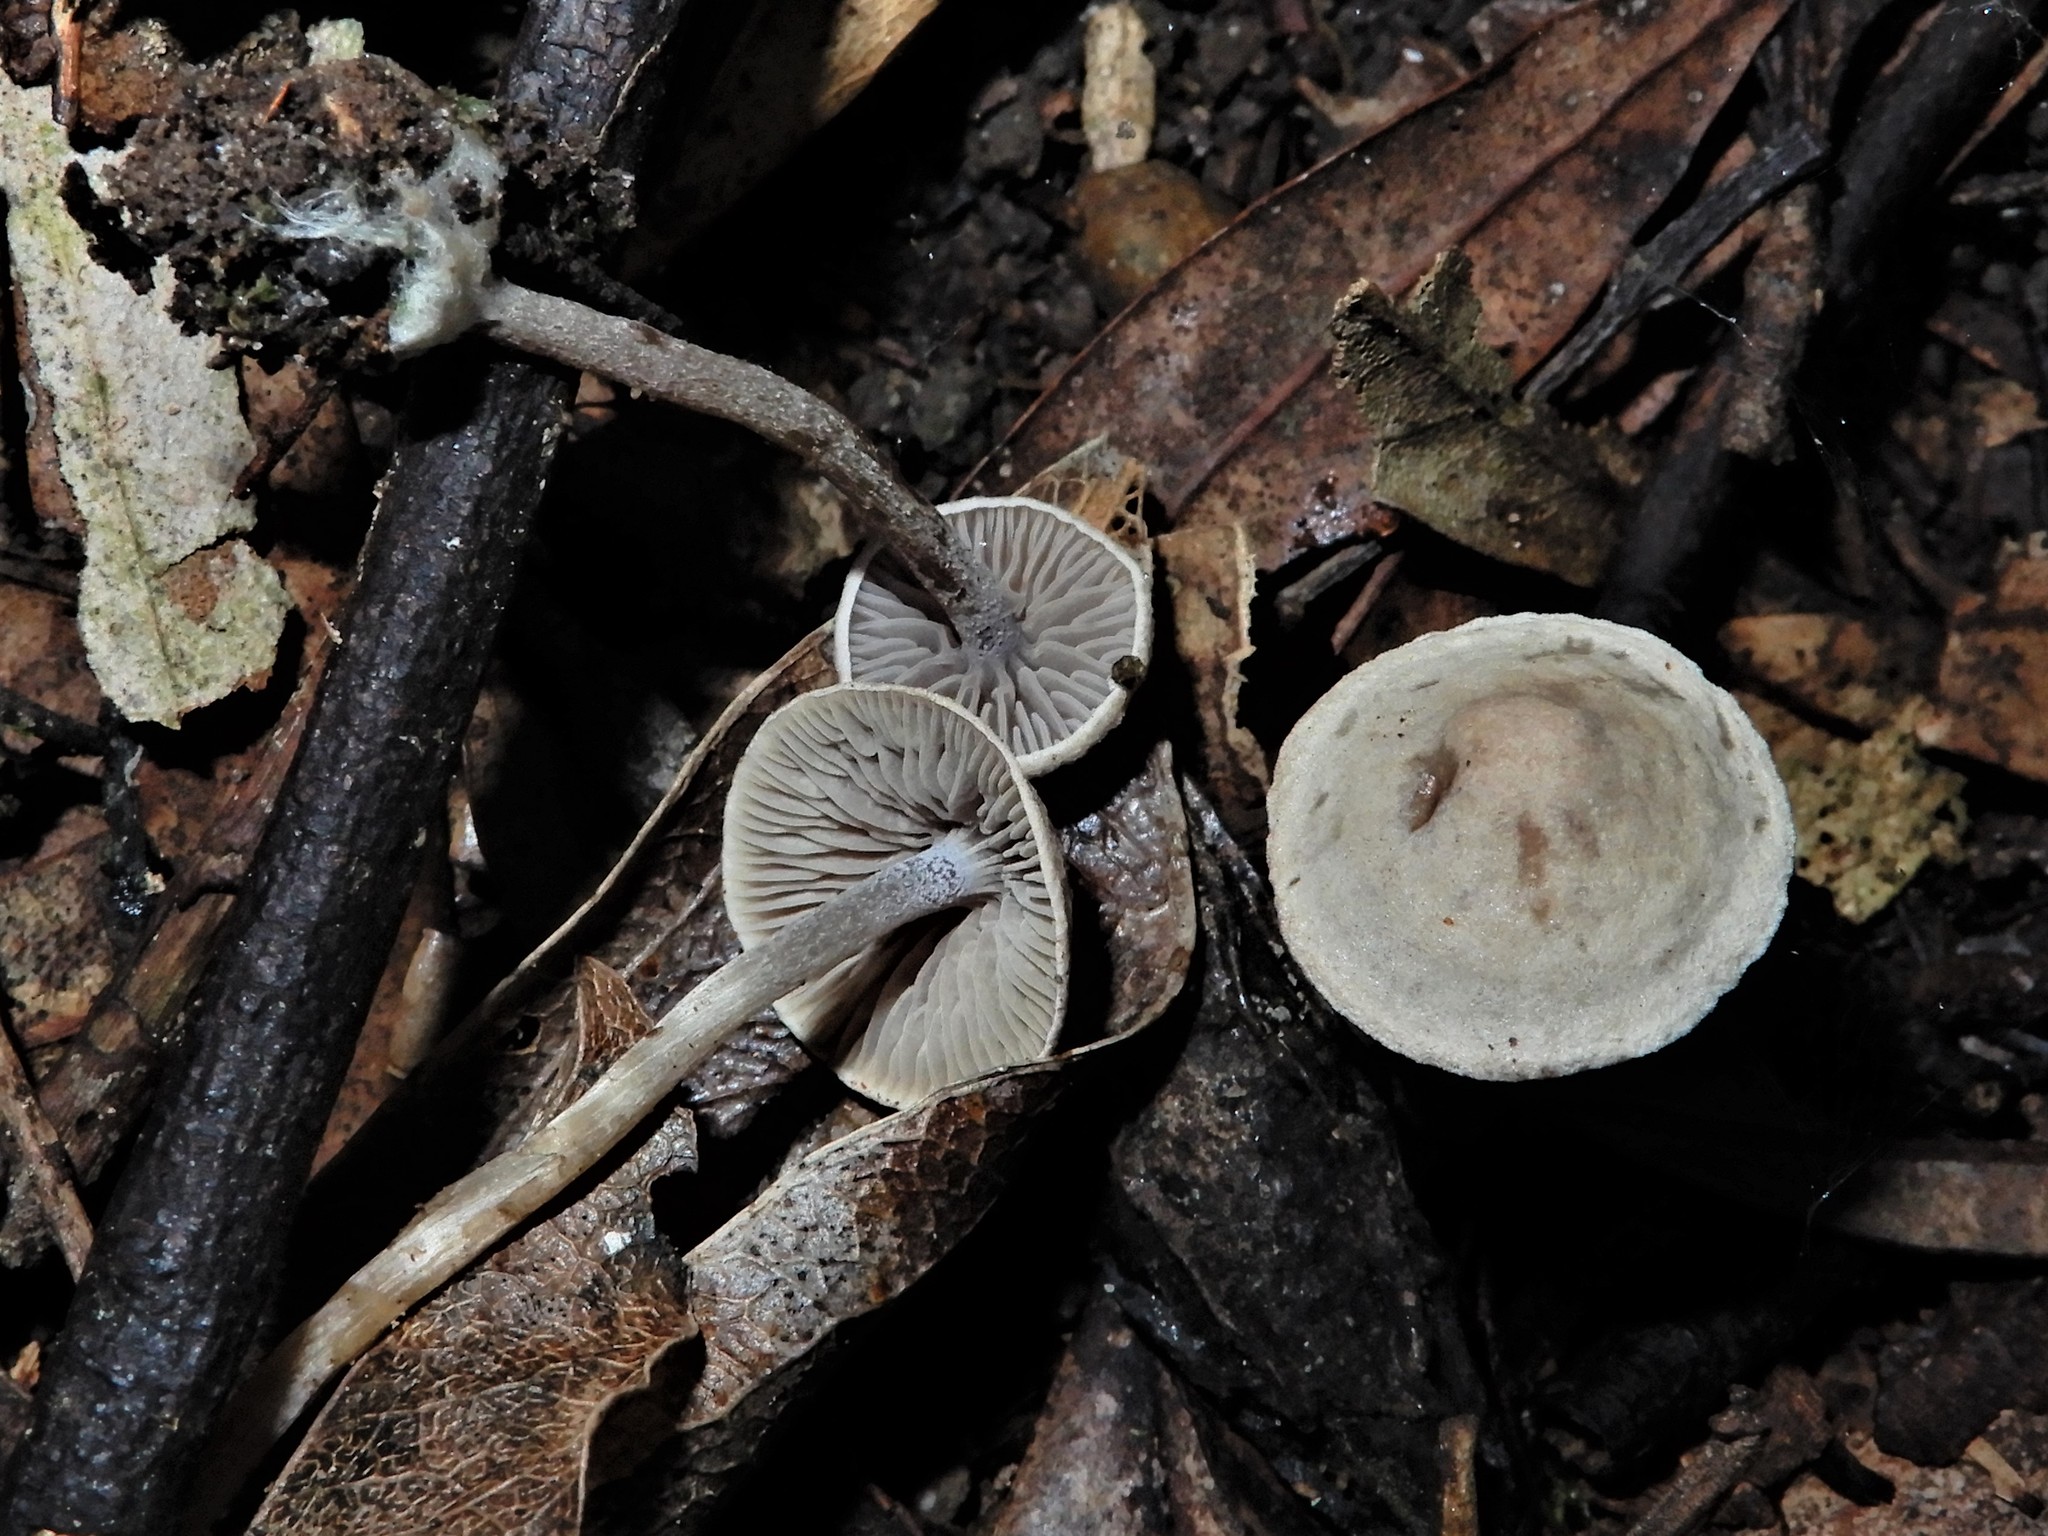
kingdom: Fungi
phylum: Basidiomycota
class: Agaricomycetes
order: Agaricales
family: Tricholomataceae
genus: Pseudobaeospora
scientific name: Pseudobaeospora
